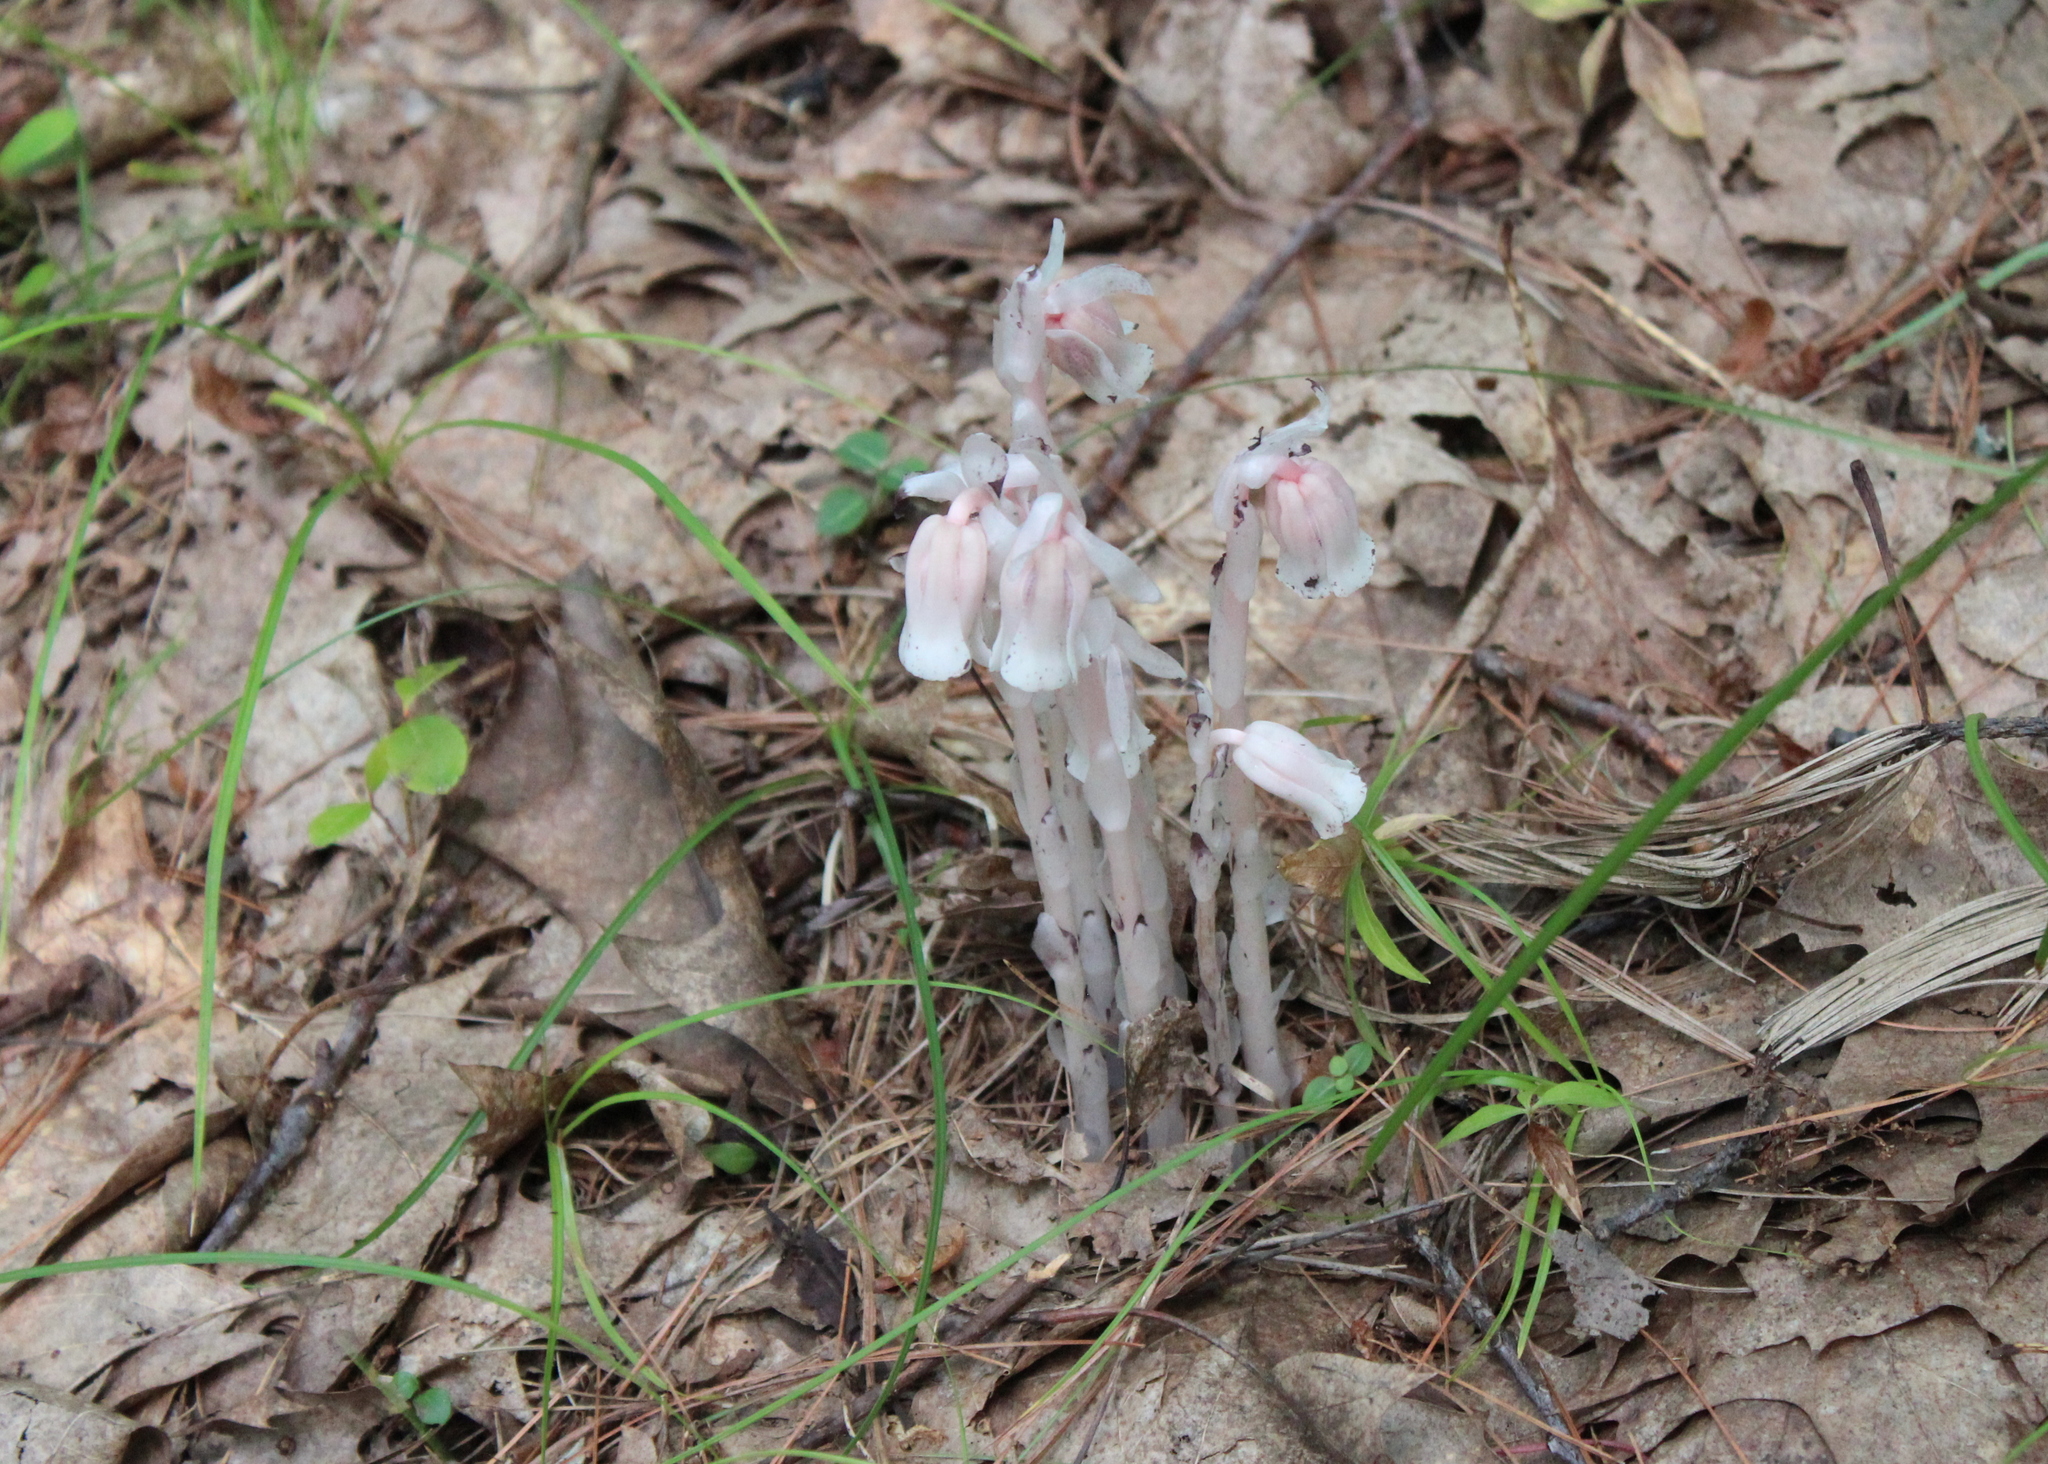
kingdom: Plantae
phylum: Tracheophyta
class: Magnoliopsida
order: Ericales
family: Ericaceae
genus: Monotropa
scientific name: Monotropa uniflora
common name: Convulsion root
